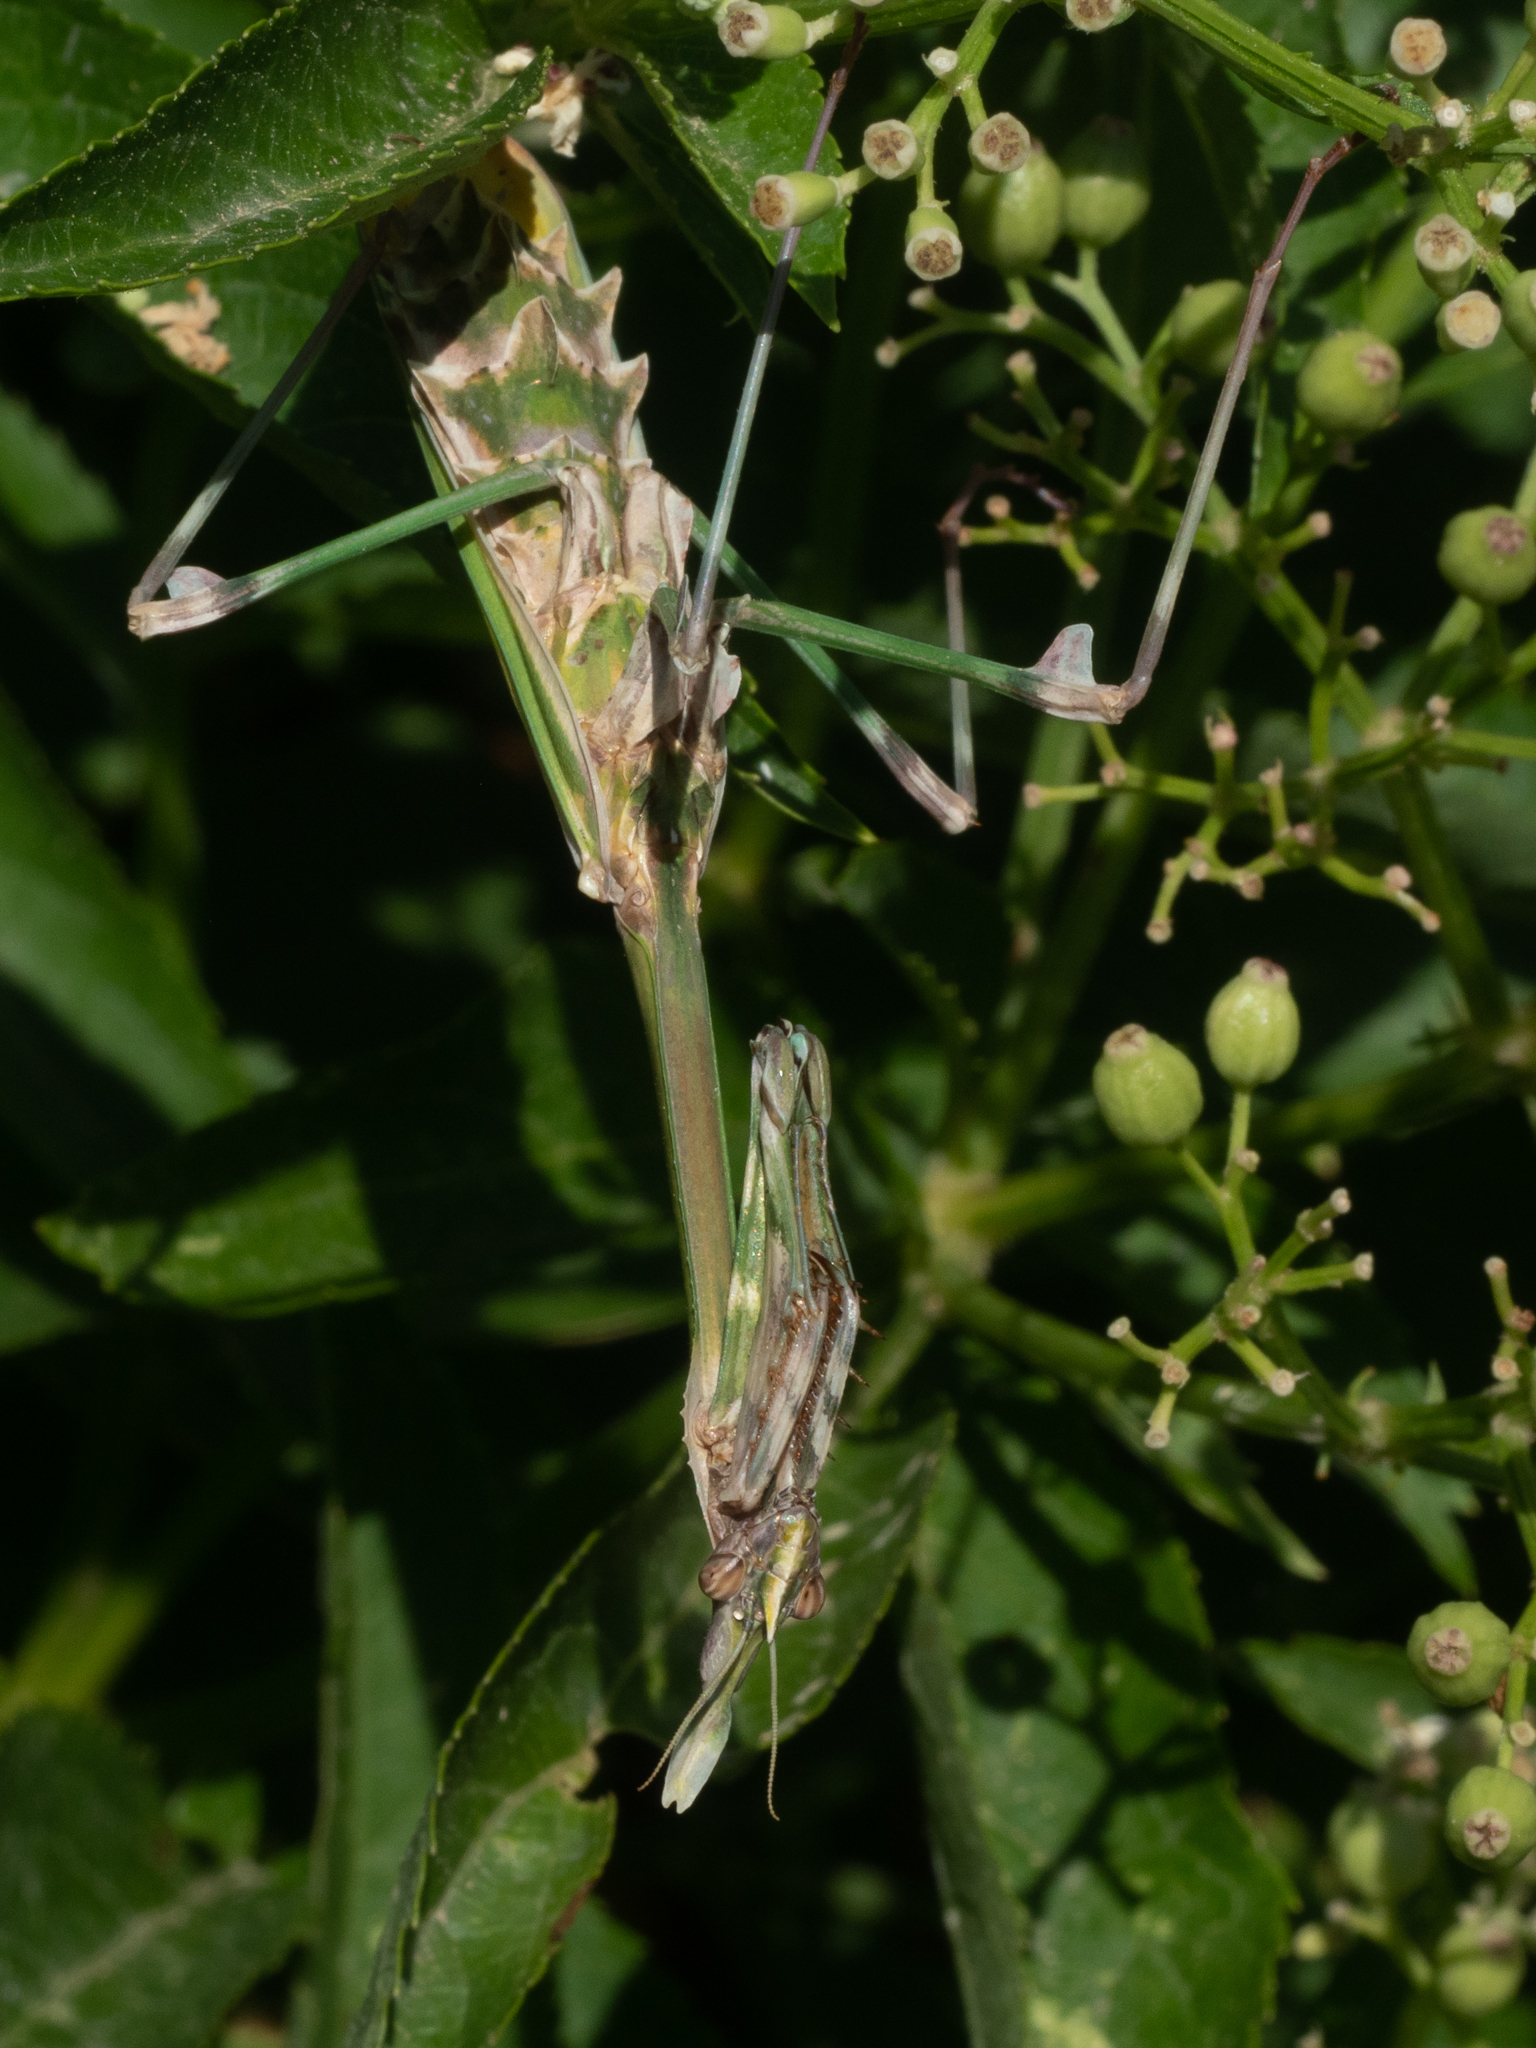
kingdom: Animalia
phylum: Arthropoda
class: Insecta
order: Mantodea
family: Empusidae
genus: Empusa
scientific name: Empusa fasciata
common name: Devil's mare
